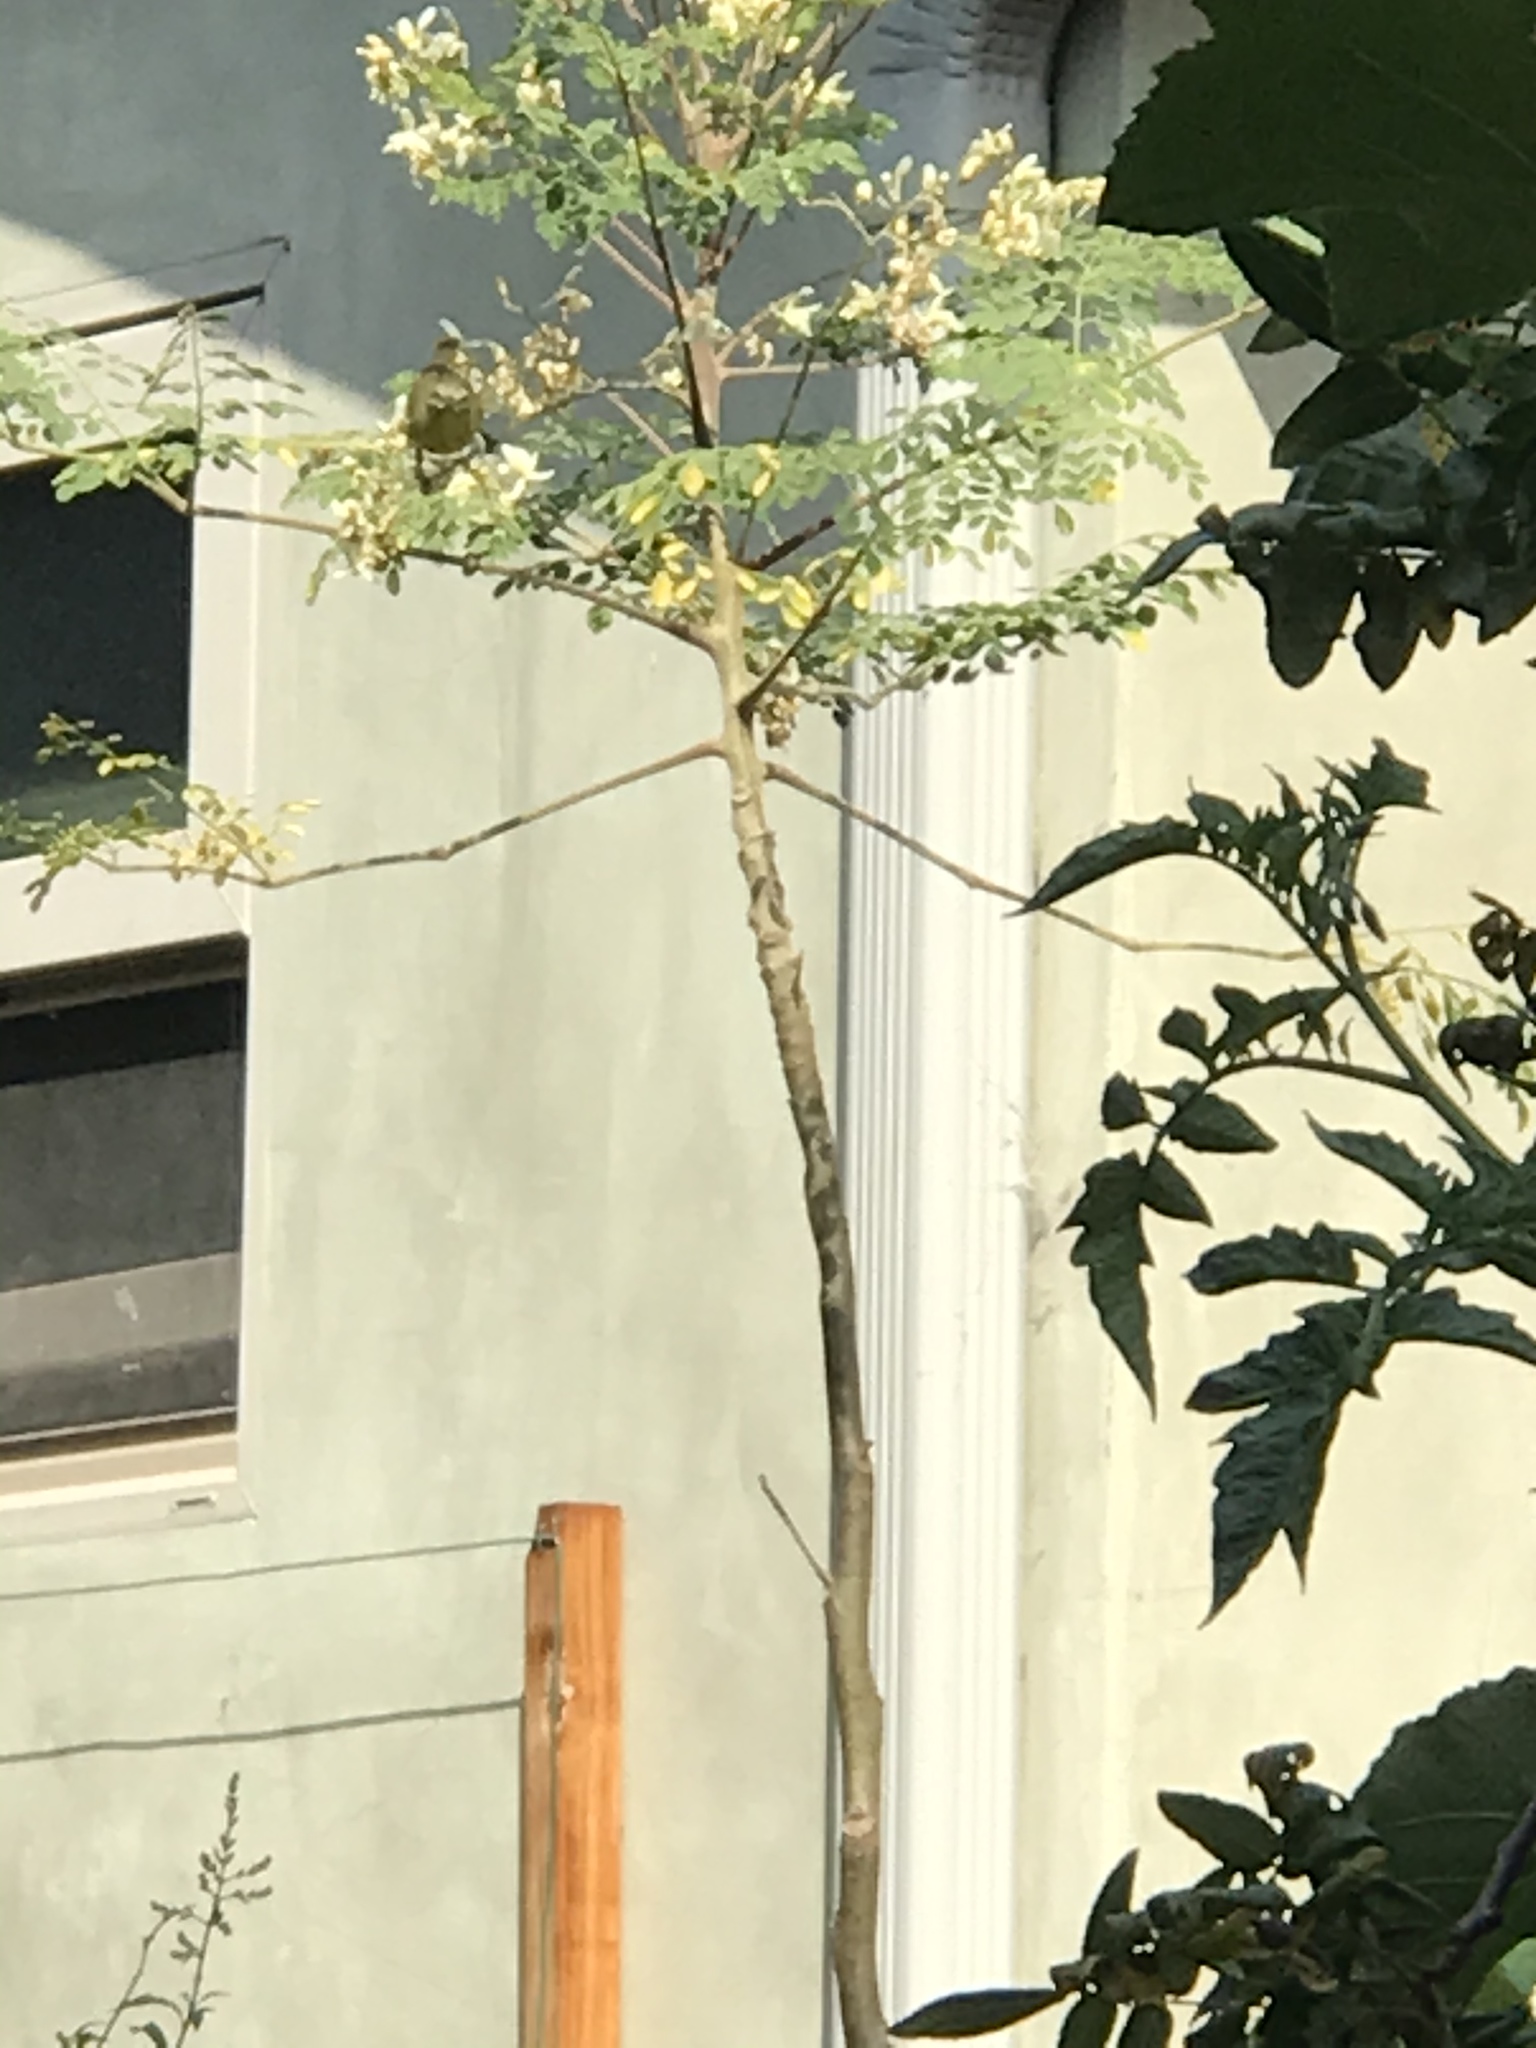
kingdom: Animalia
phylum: Chordata
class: Aves
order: Passeriformes
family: Parulidae
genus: Leiothlypis
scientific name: Leiothlypis celata
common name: Orange-crowned warbler
